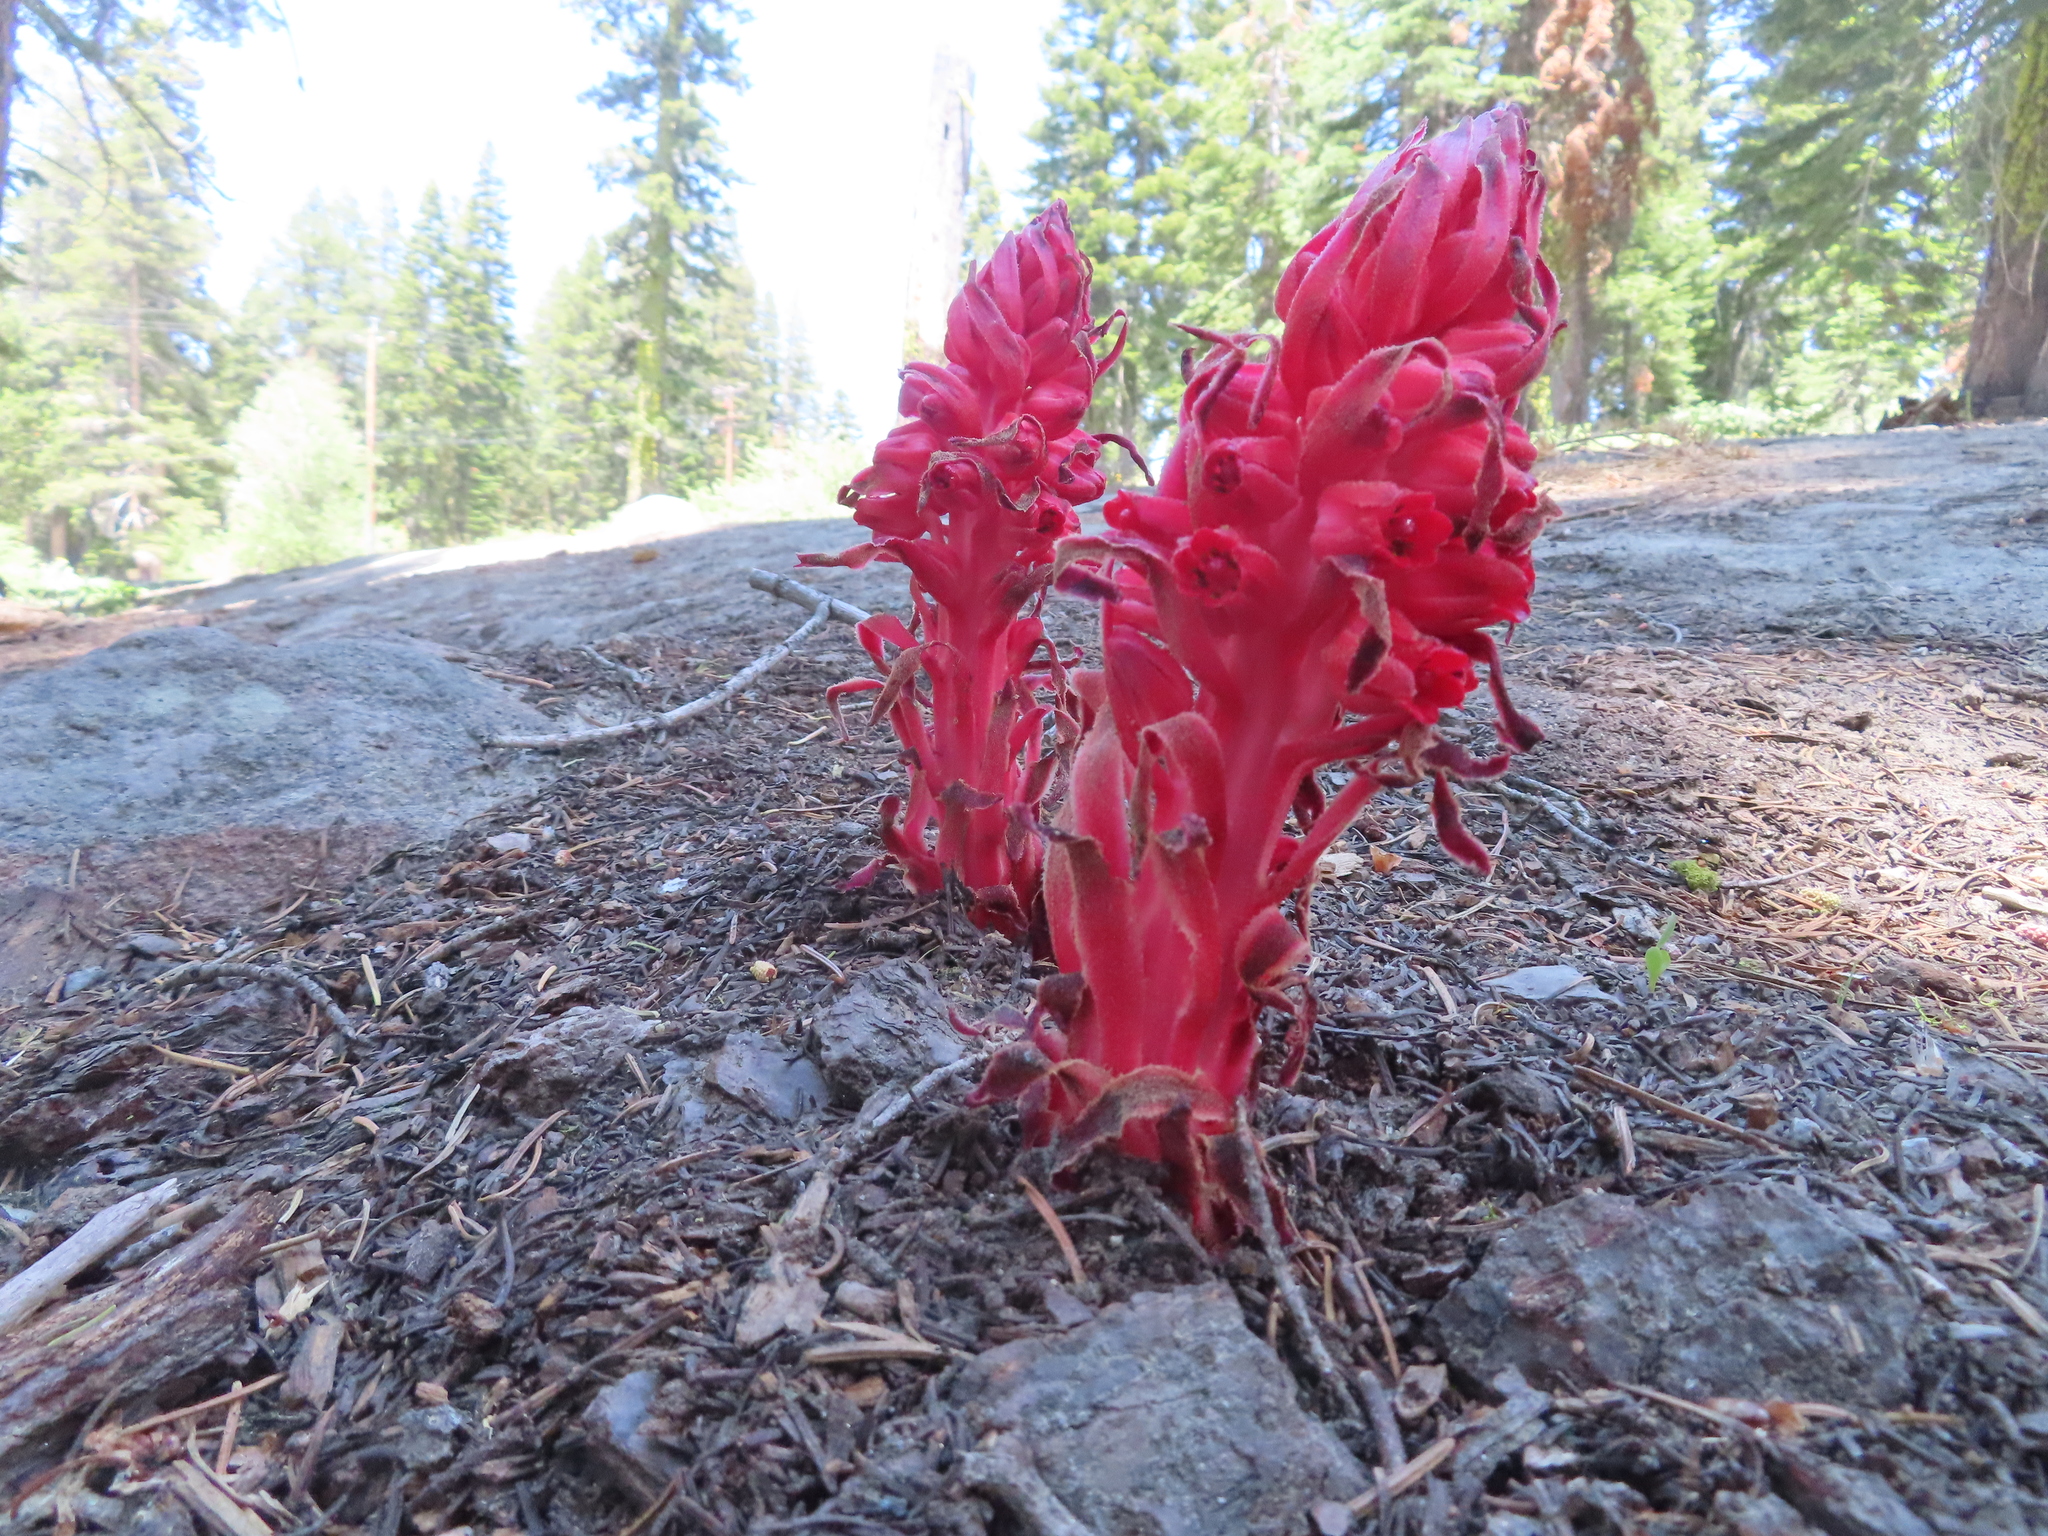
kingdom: Plantae
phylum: Tracheophyta
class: Magnoliopsida
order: Ericales
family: Ericaceae
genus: Sarcodes
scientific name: Sarcodes sanguinea
